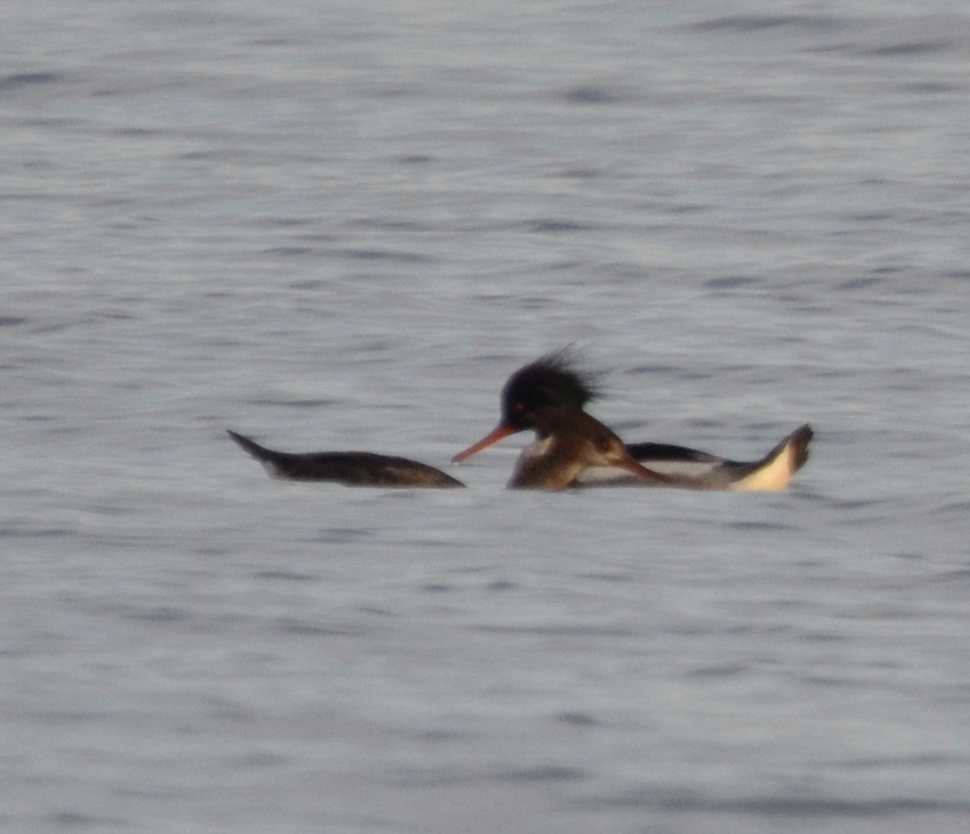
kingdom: Animalia
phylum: Chordata
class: Aves
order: Anseriformes
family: Anatidae
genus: Mergus
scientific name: Mergus serrator
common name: Red-breasted merganser
